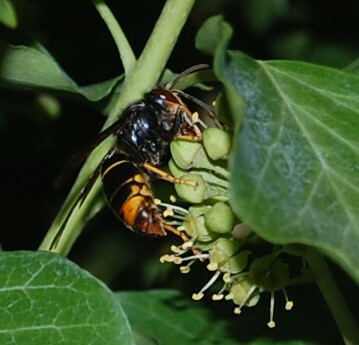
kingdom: Animalia
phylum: Arthropoda
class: Insecta
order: Hymenoptera
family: Vespidae
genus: Vespa
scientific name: Vespa velutina
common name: Asian hornet
